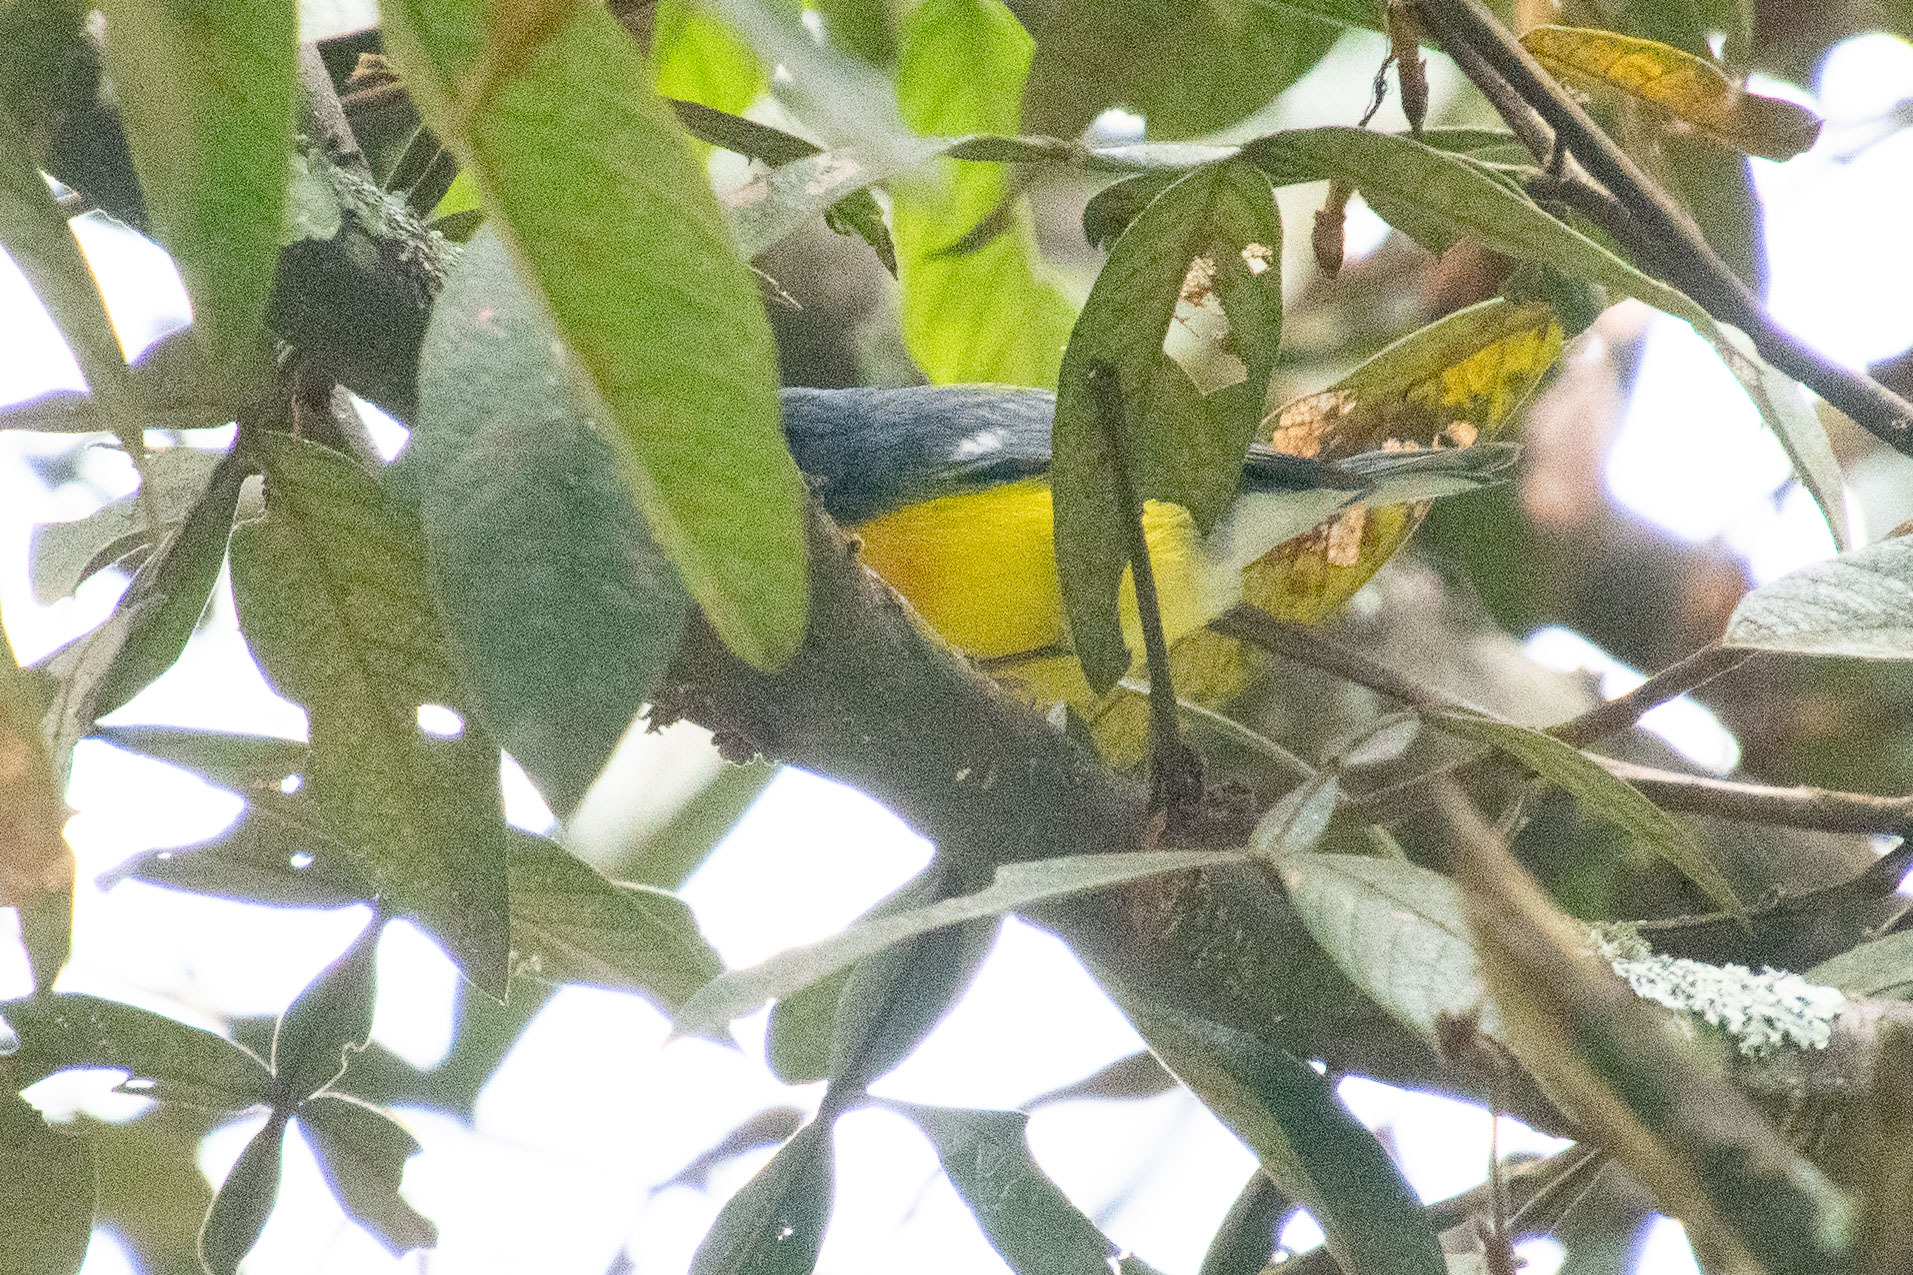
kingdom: Animalia
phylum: Chordata
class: Aves
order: Passeriformes
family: Parulidae
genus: Setophaga
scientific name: Setophaga pitiayumi
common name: Tropical parula
